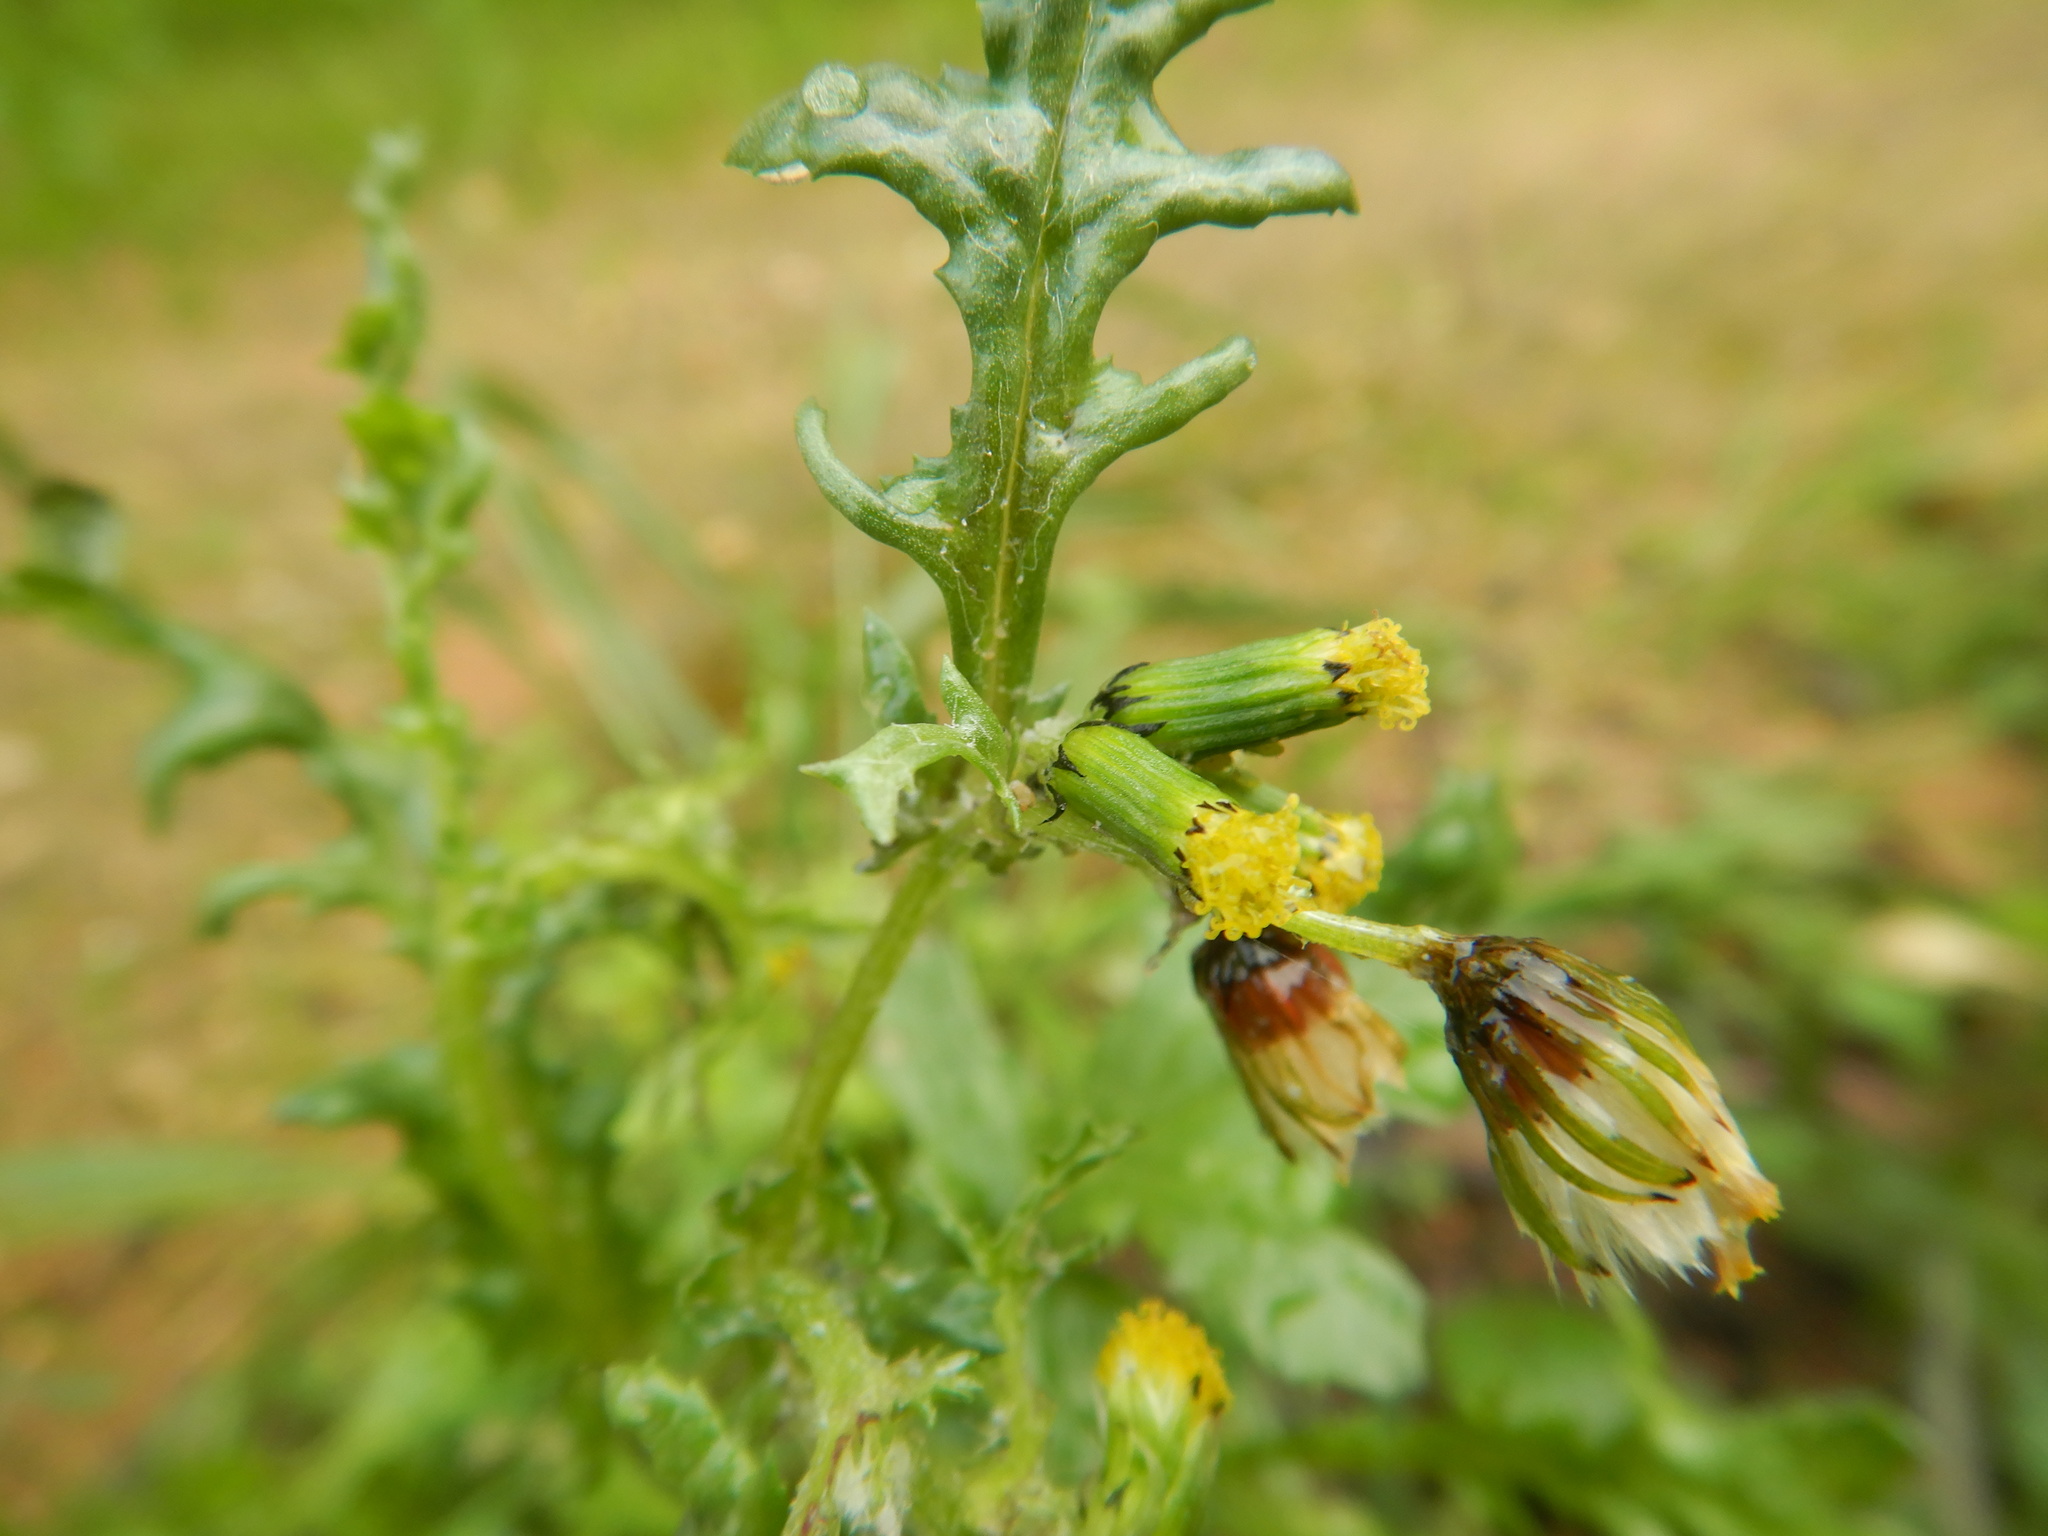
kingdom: Plantae
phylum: Tracheophyta
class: Magnoliopsida
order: Asterales
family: Asteraceae
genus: Senecio
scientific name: Senecio vulgaris
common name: Old-man-in-the-spring
